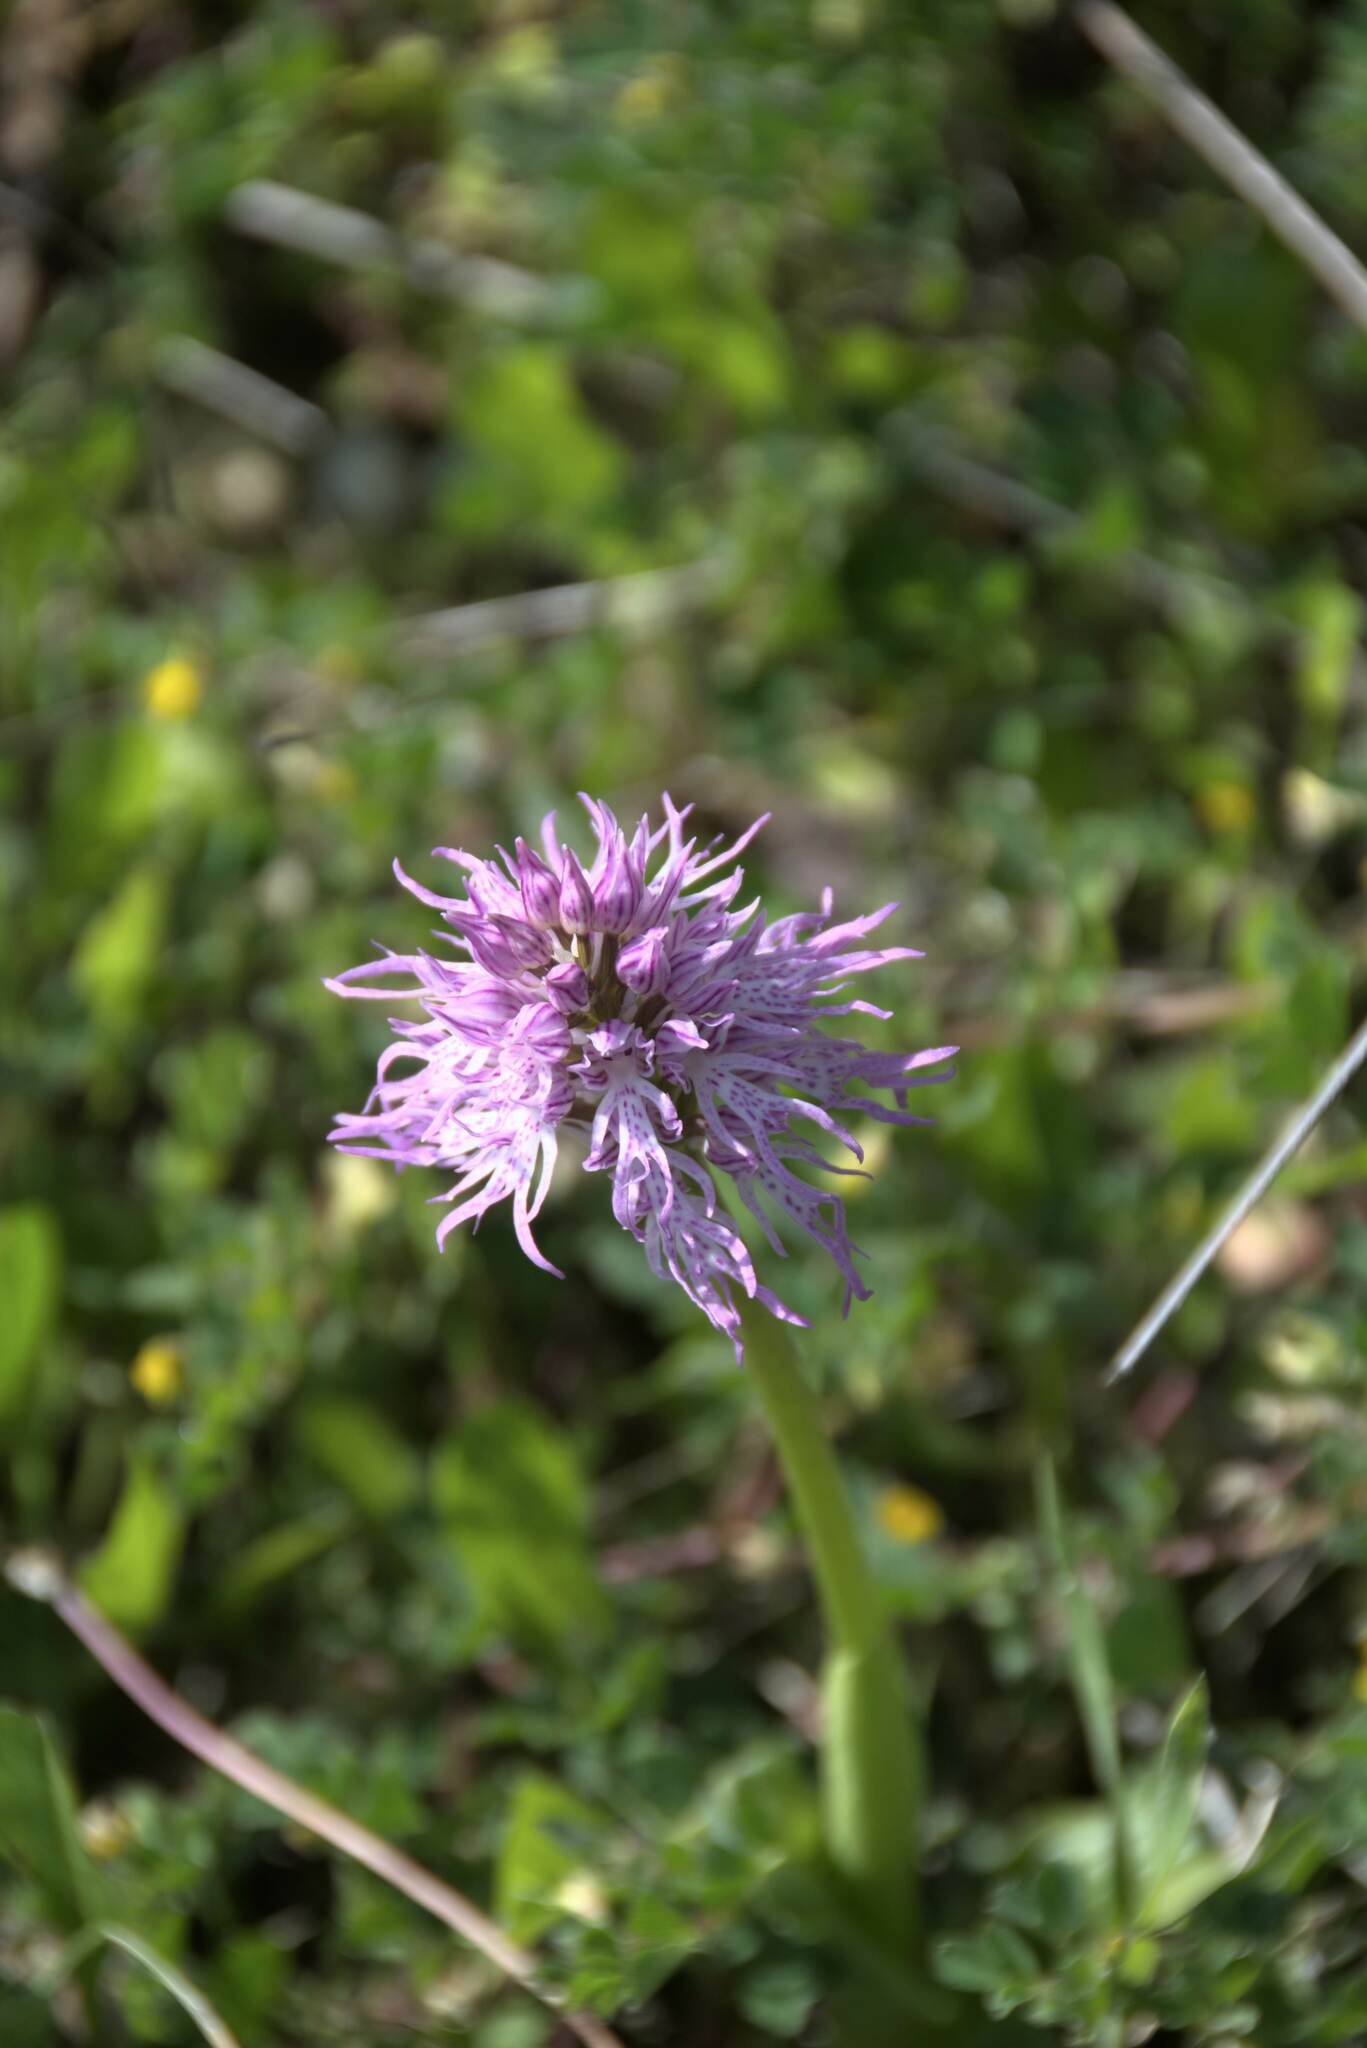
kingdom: Plantae
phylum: Tracheophyta
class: Liliopsida
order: Asparagales
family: Orchidaceae
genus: Orchis
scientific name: Orchis italica
